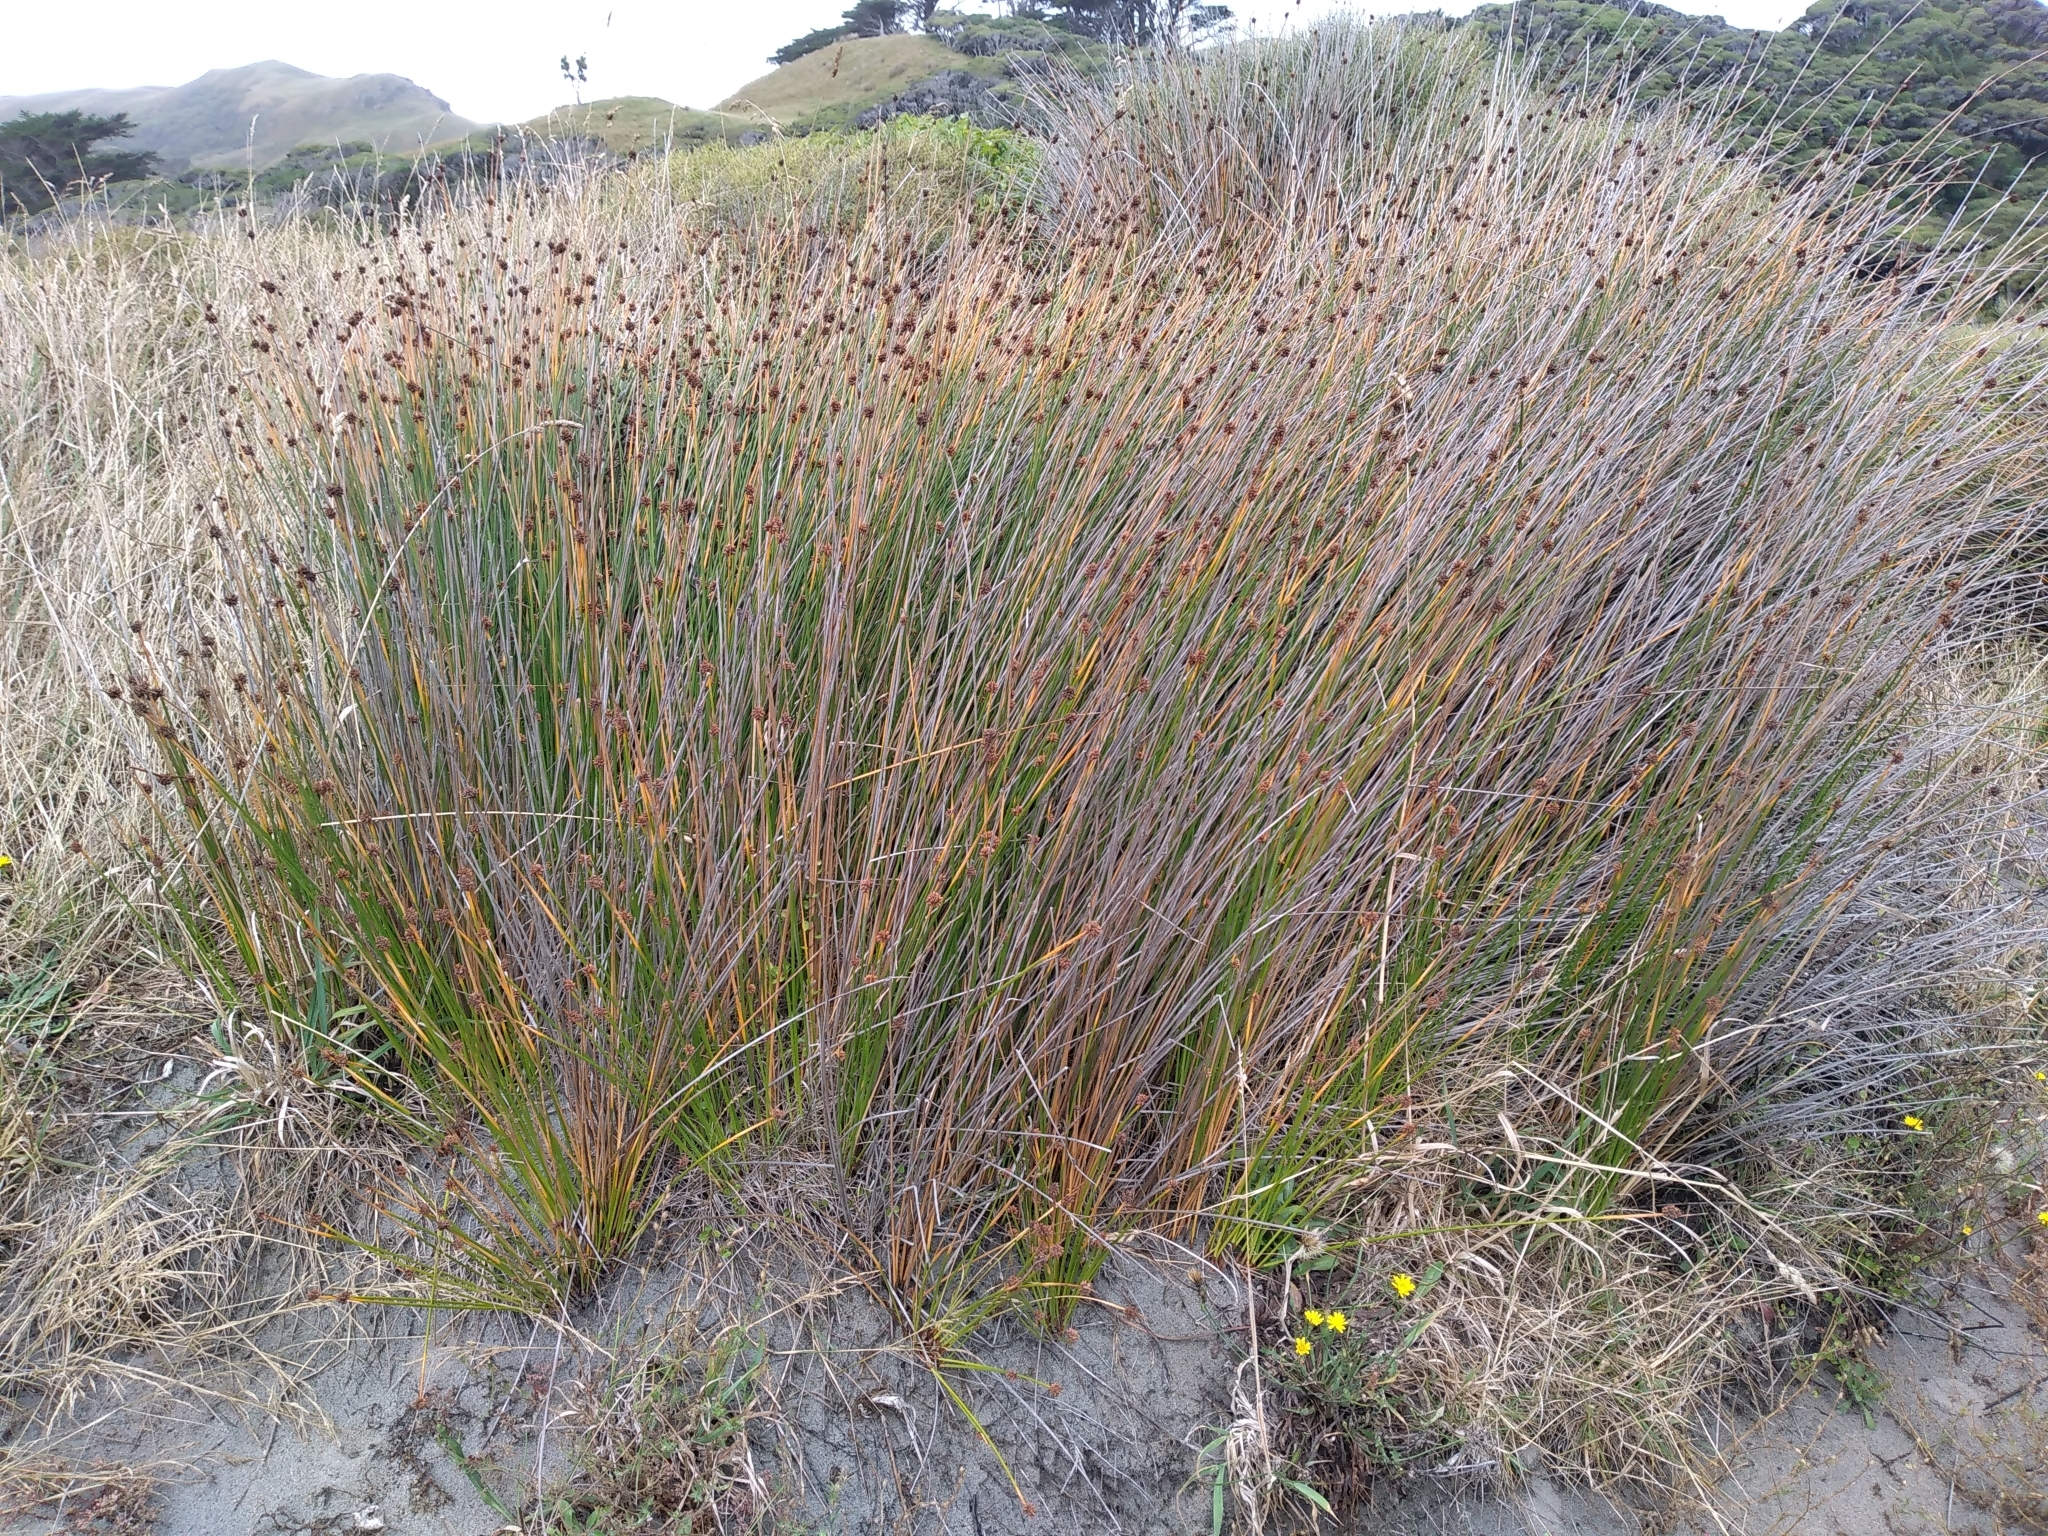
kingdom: Plantae
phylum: Tracheophyta
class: Liliopsida
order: Poales
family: Cyperaceae
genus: Ficinia
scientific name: Ficinia nodosa
